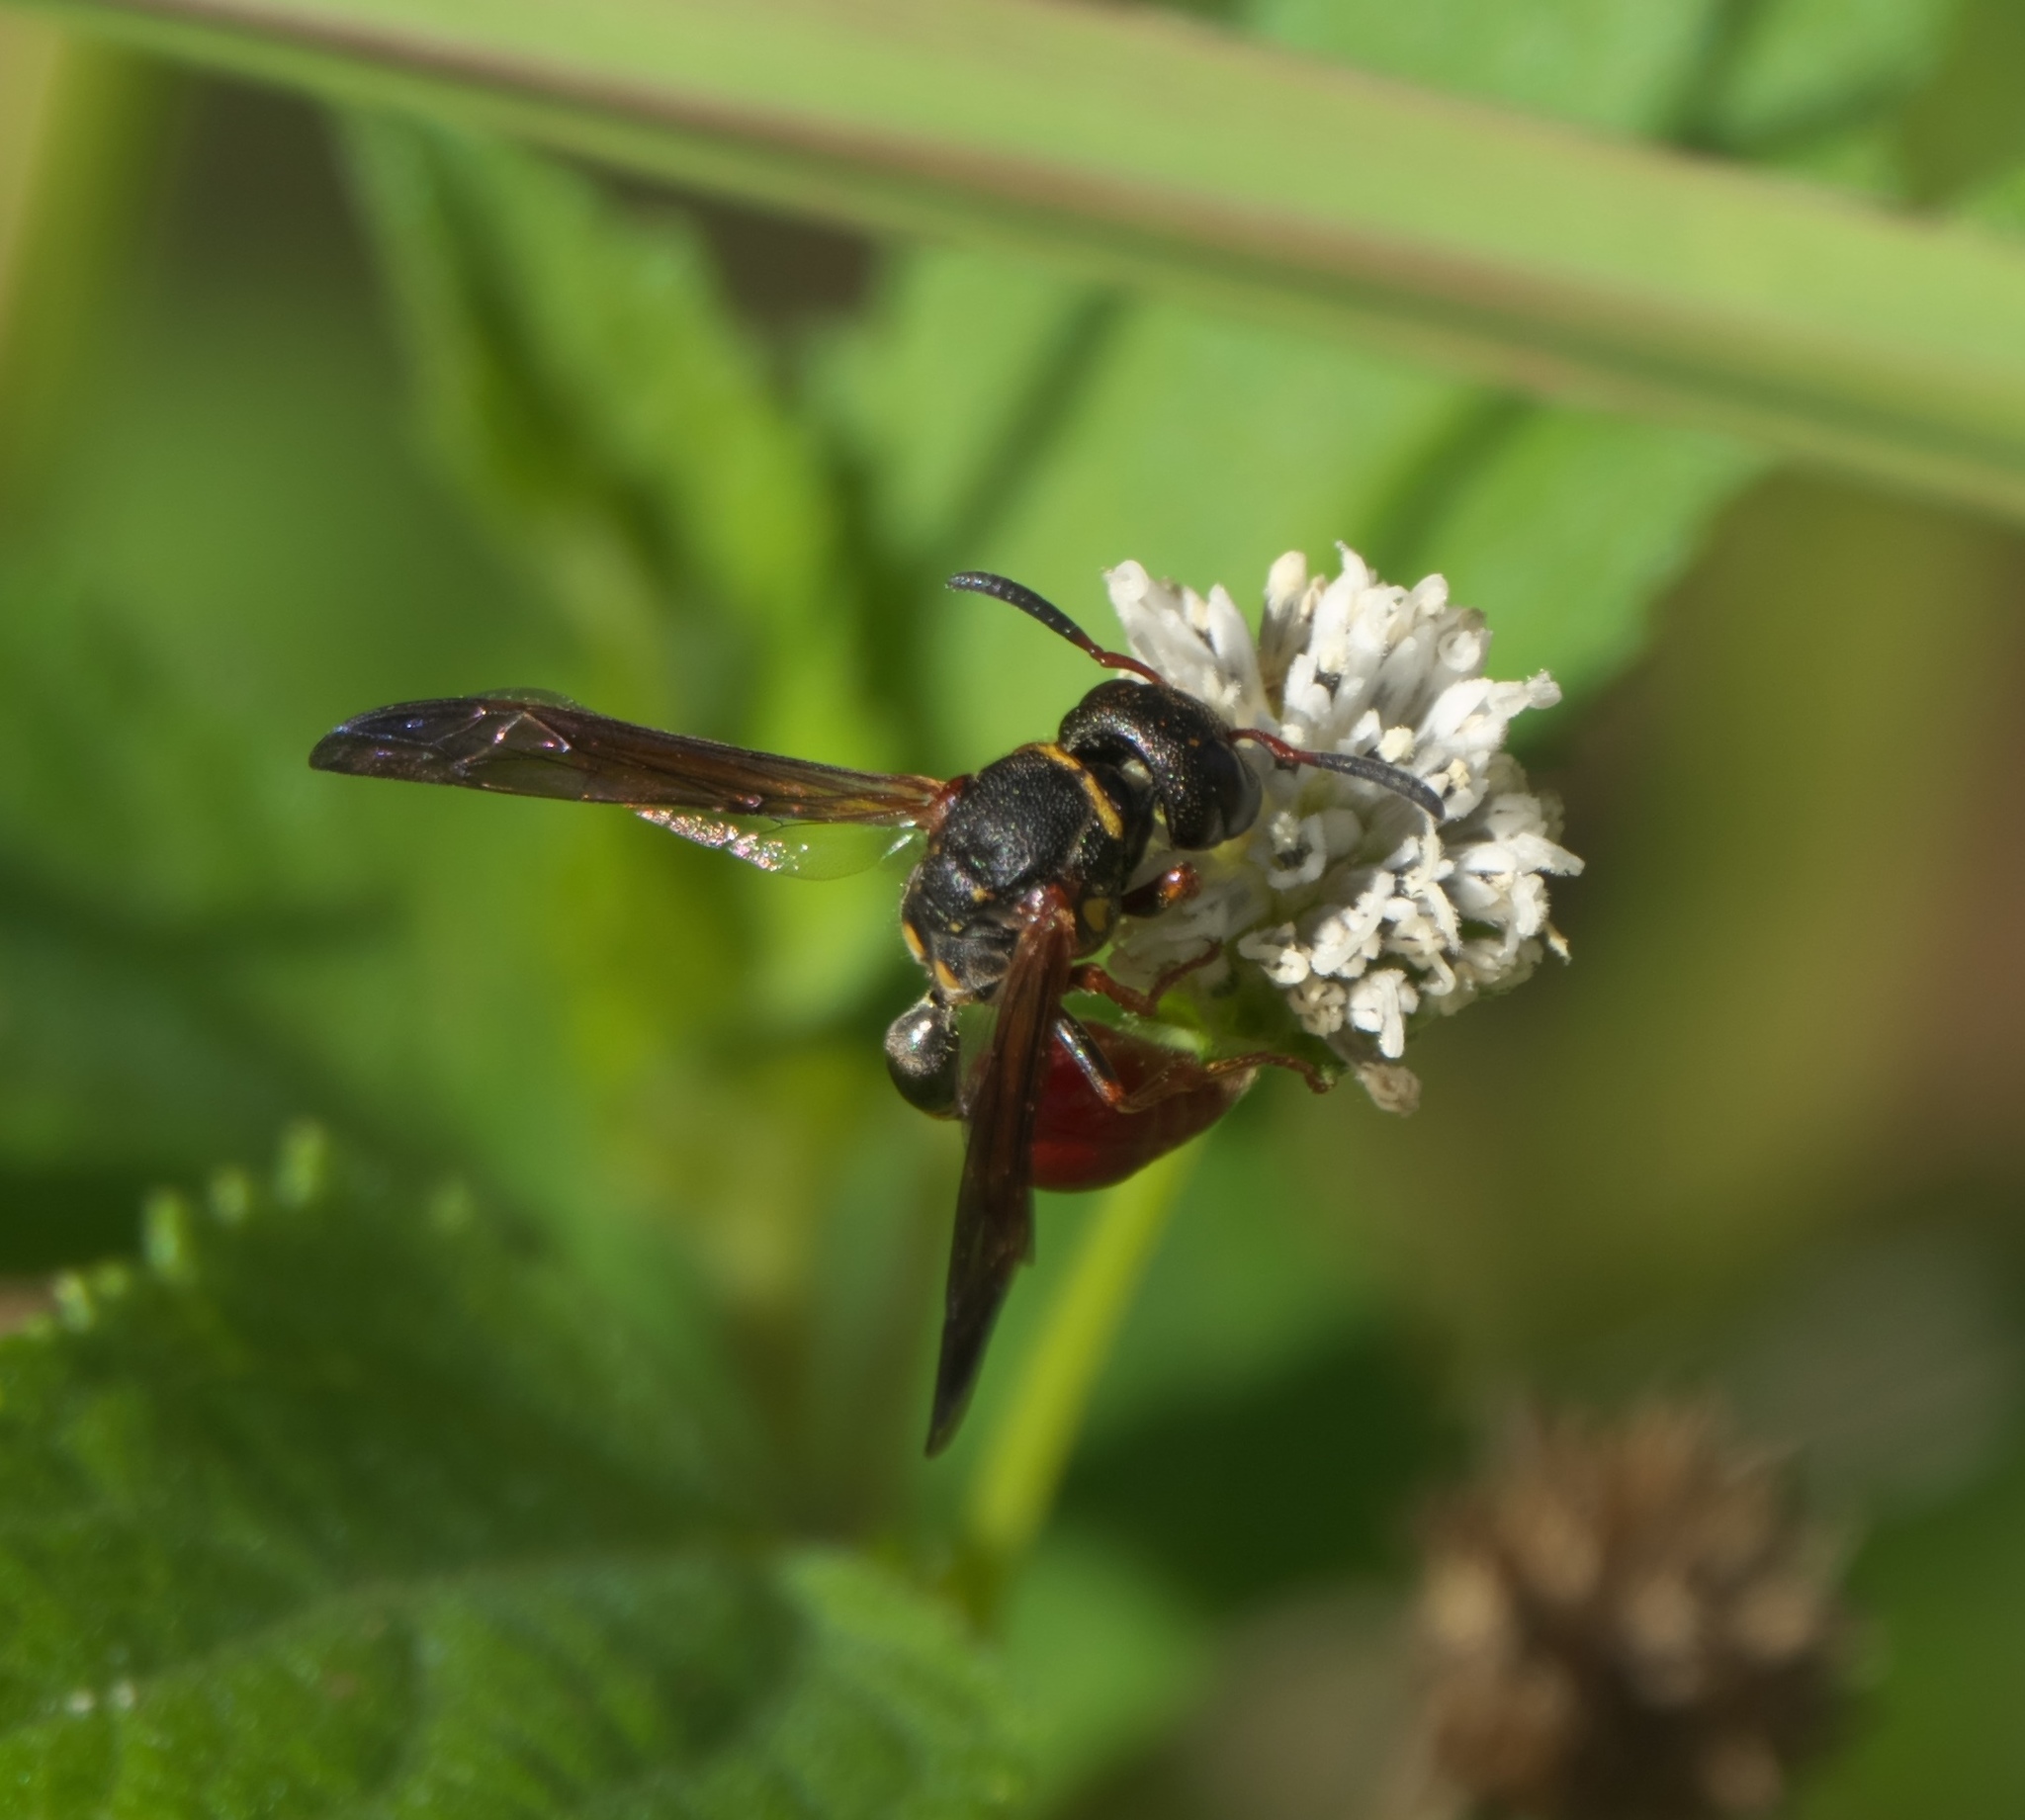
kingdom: Animalia
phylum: Arthropoda
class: Insecta
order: Hymenoptera
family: Eumenidae
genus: Zethus
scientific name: Zethus slossonae
